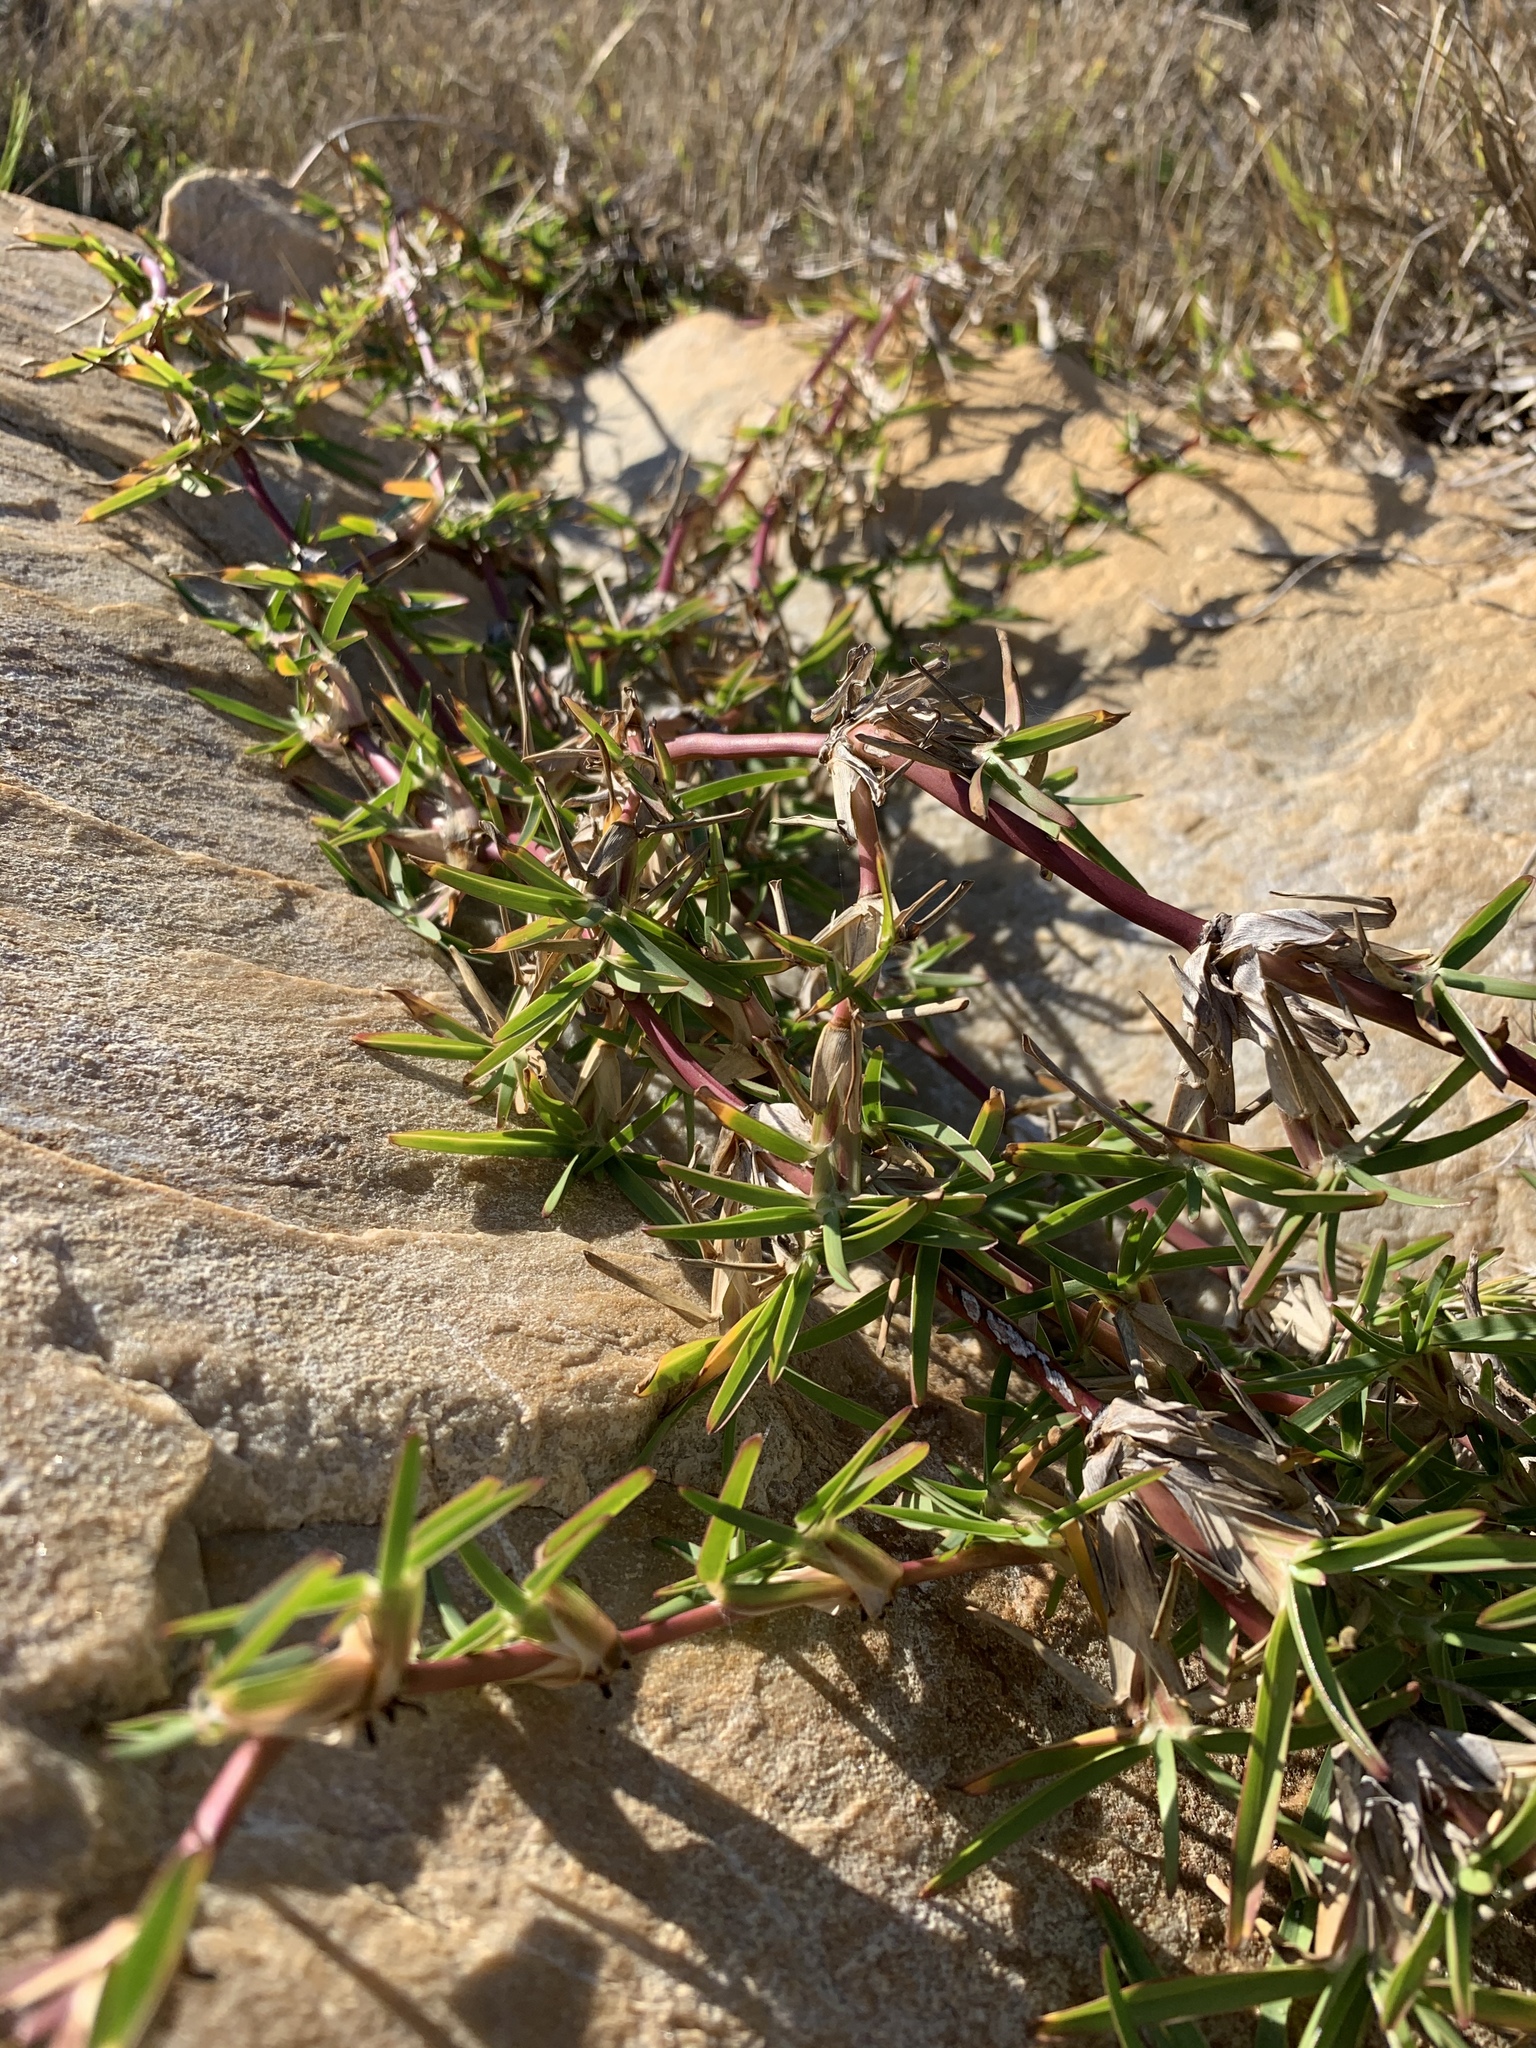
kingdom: Plantae
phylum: Tracheophyta
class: Liliopsida
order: Poales
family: Poaceae
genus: Stenotaphrum
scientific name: Stenotaphrum secundatum
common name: St. augustine grass
